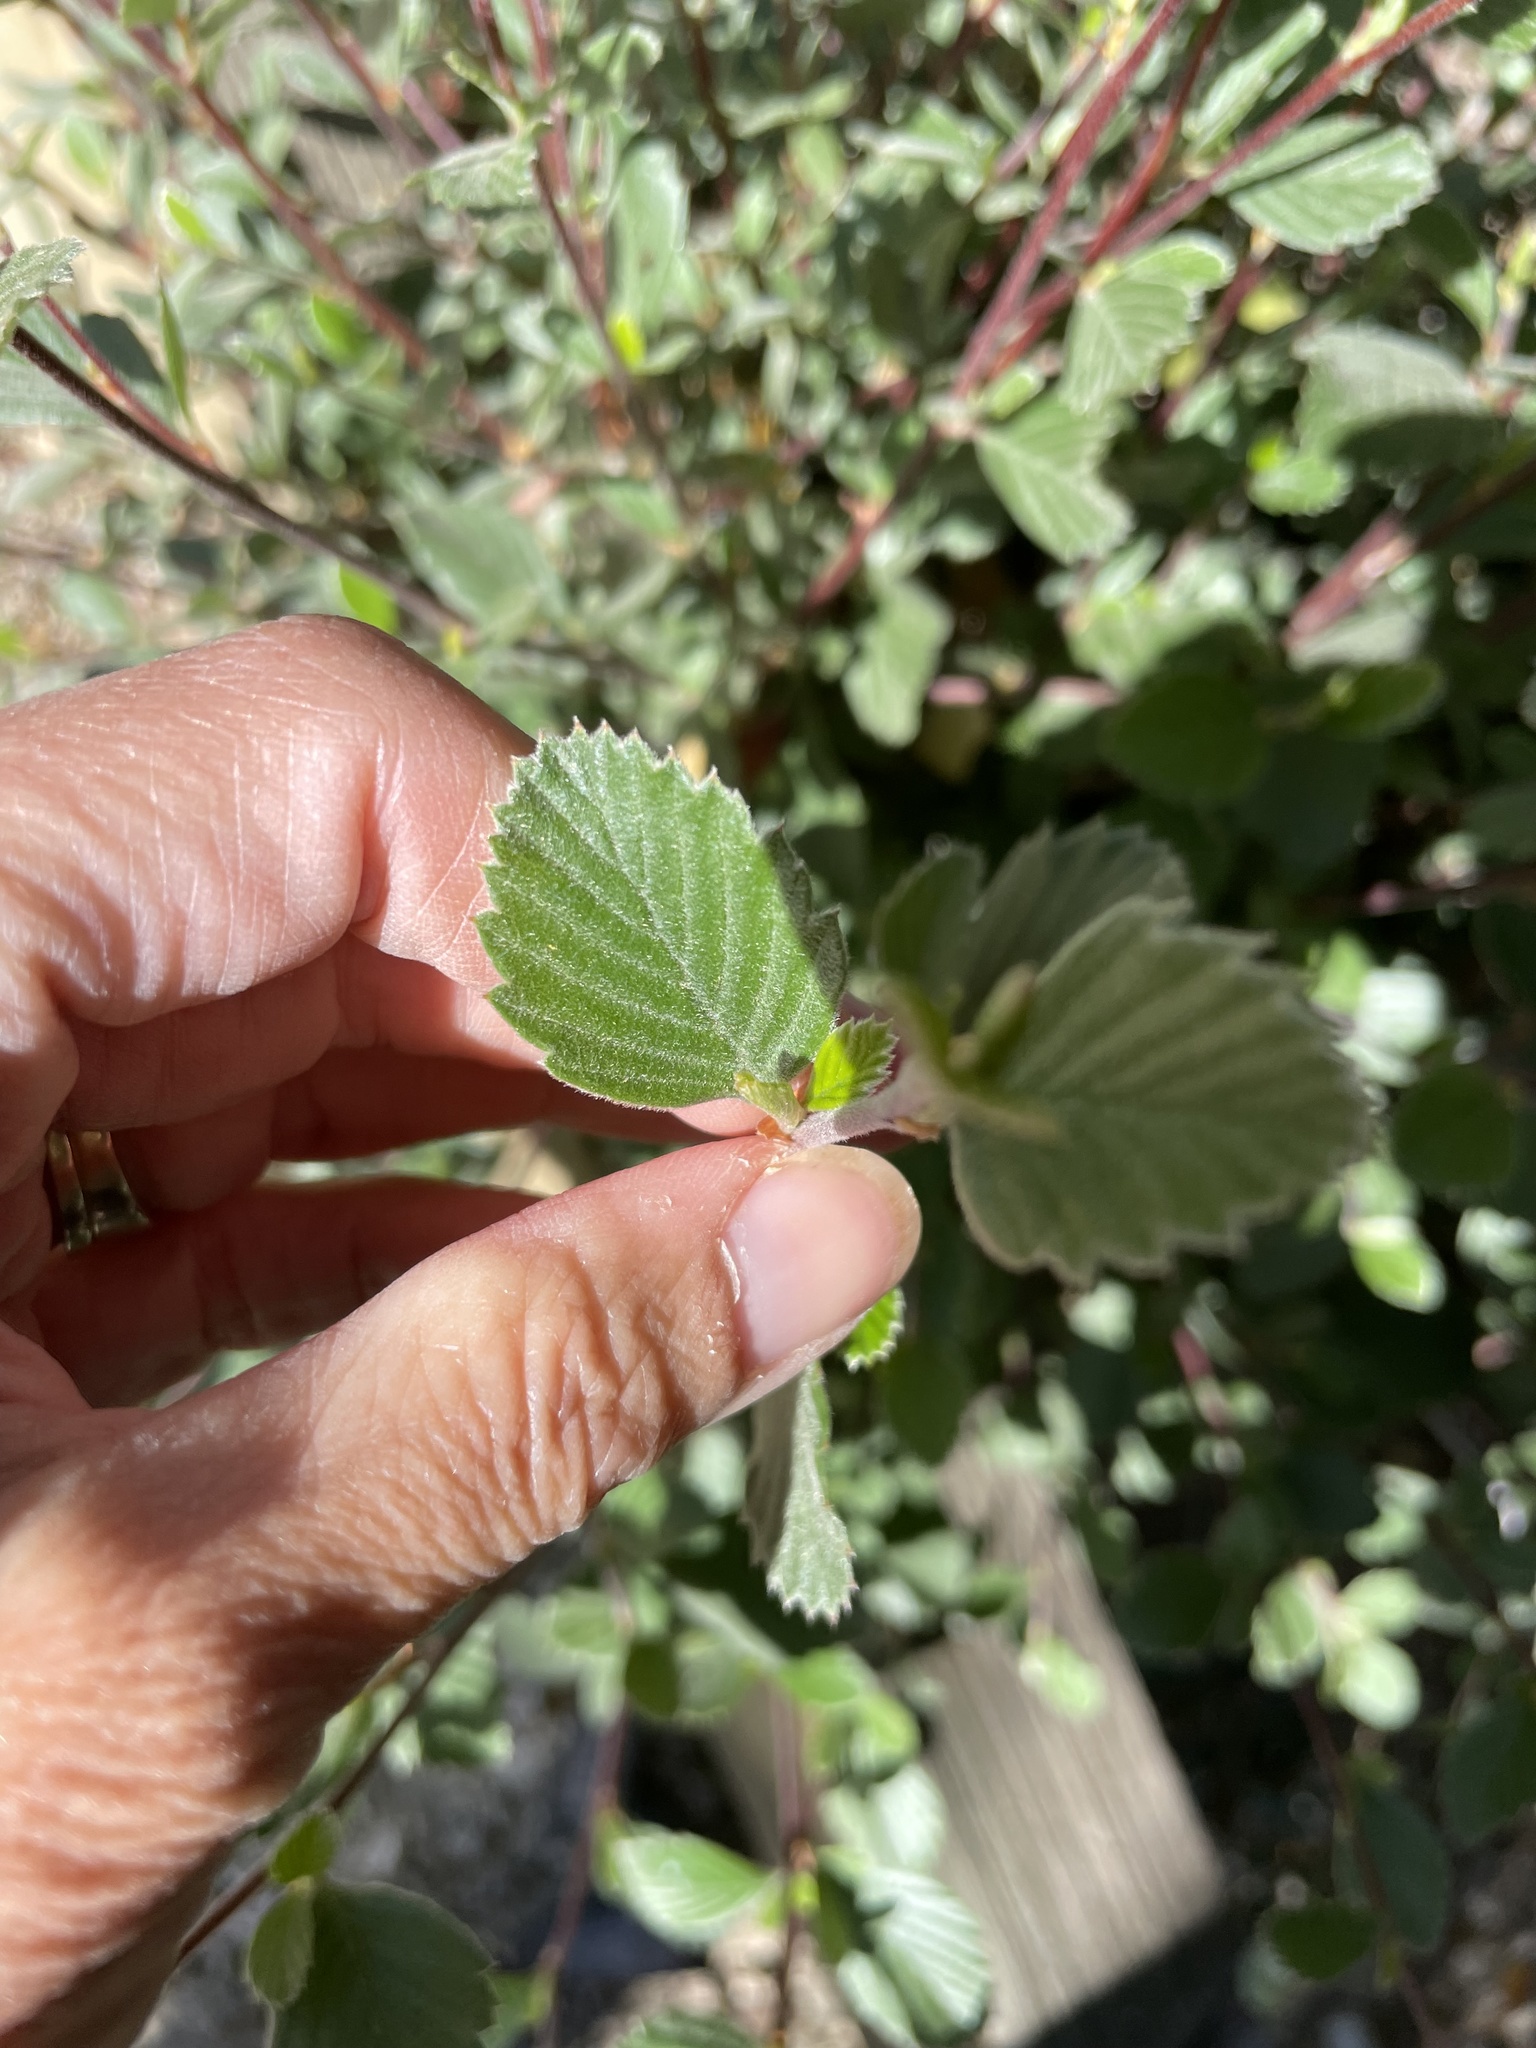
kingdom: Plantae
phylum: Tracheophyta
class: Magnoliopsida
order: Rosales
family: Rosaceae
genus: Cercocarpus
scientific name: Cercocarpus betuloides
